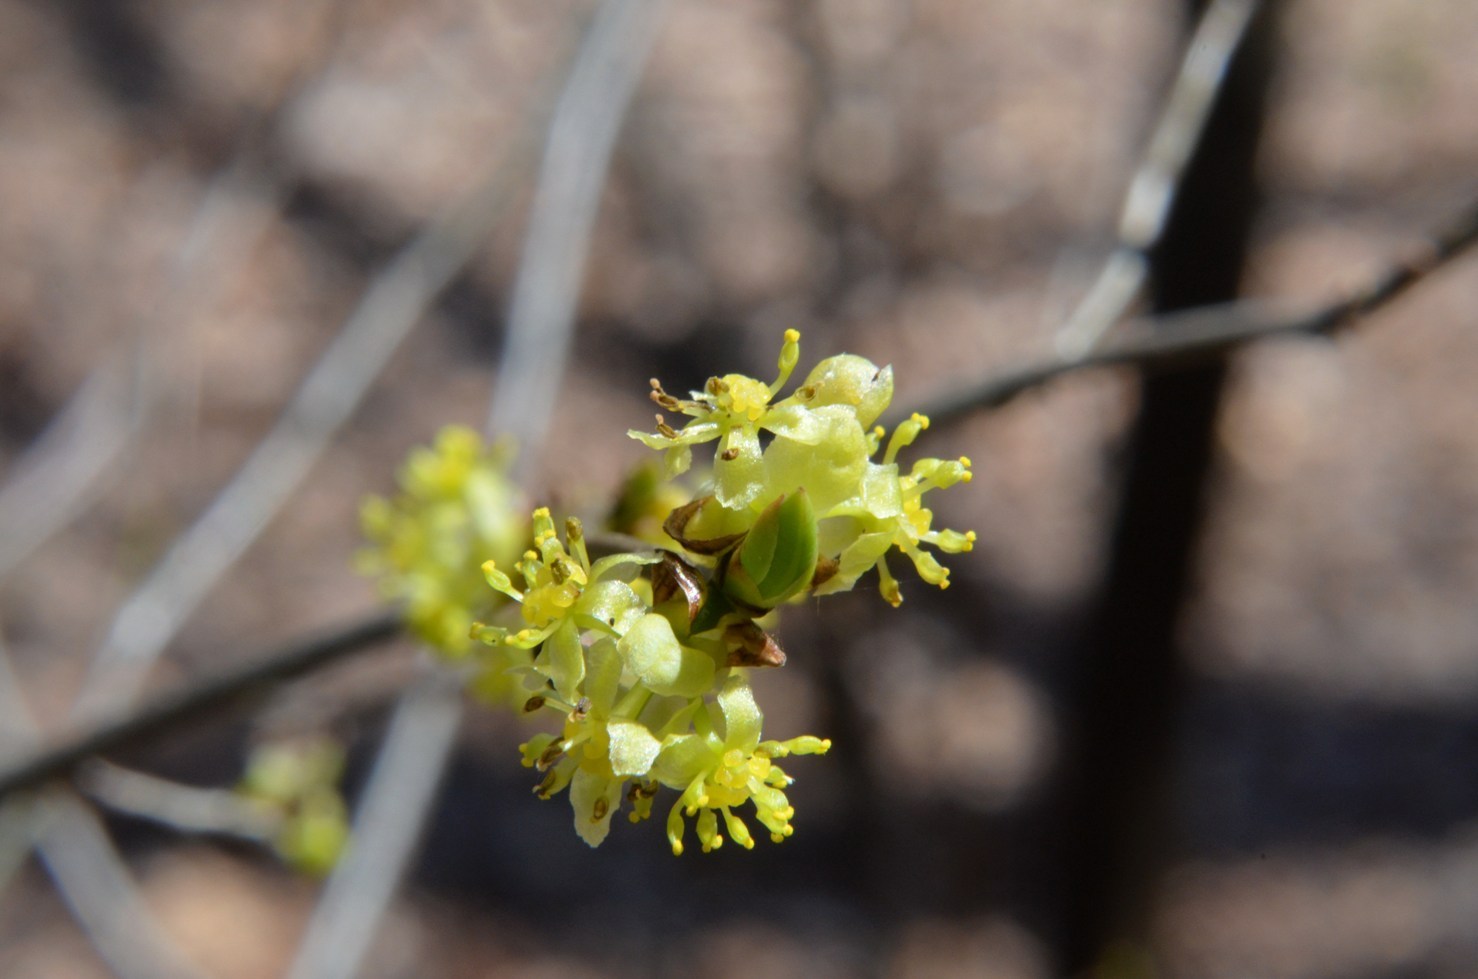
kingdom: Plantae
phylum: Tracheophyta
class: Magnoliopsida
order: Laurales
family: Lauraceae
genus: Lindera
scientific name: Lindera benzoin
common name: Spicebush
